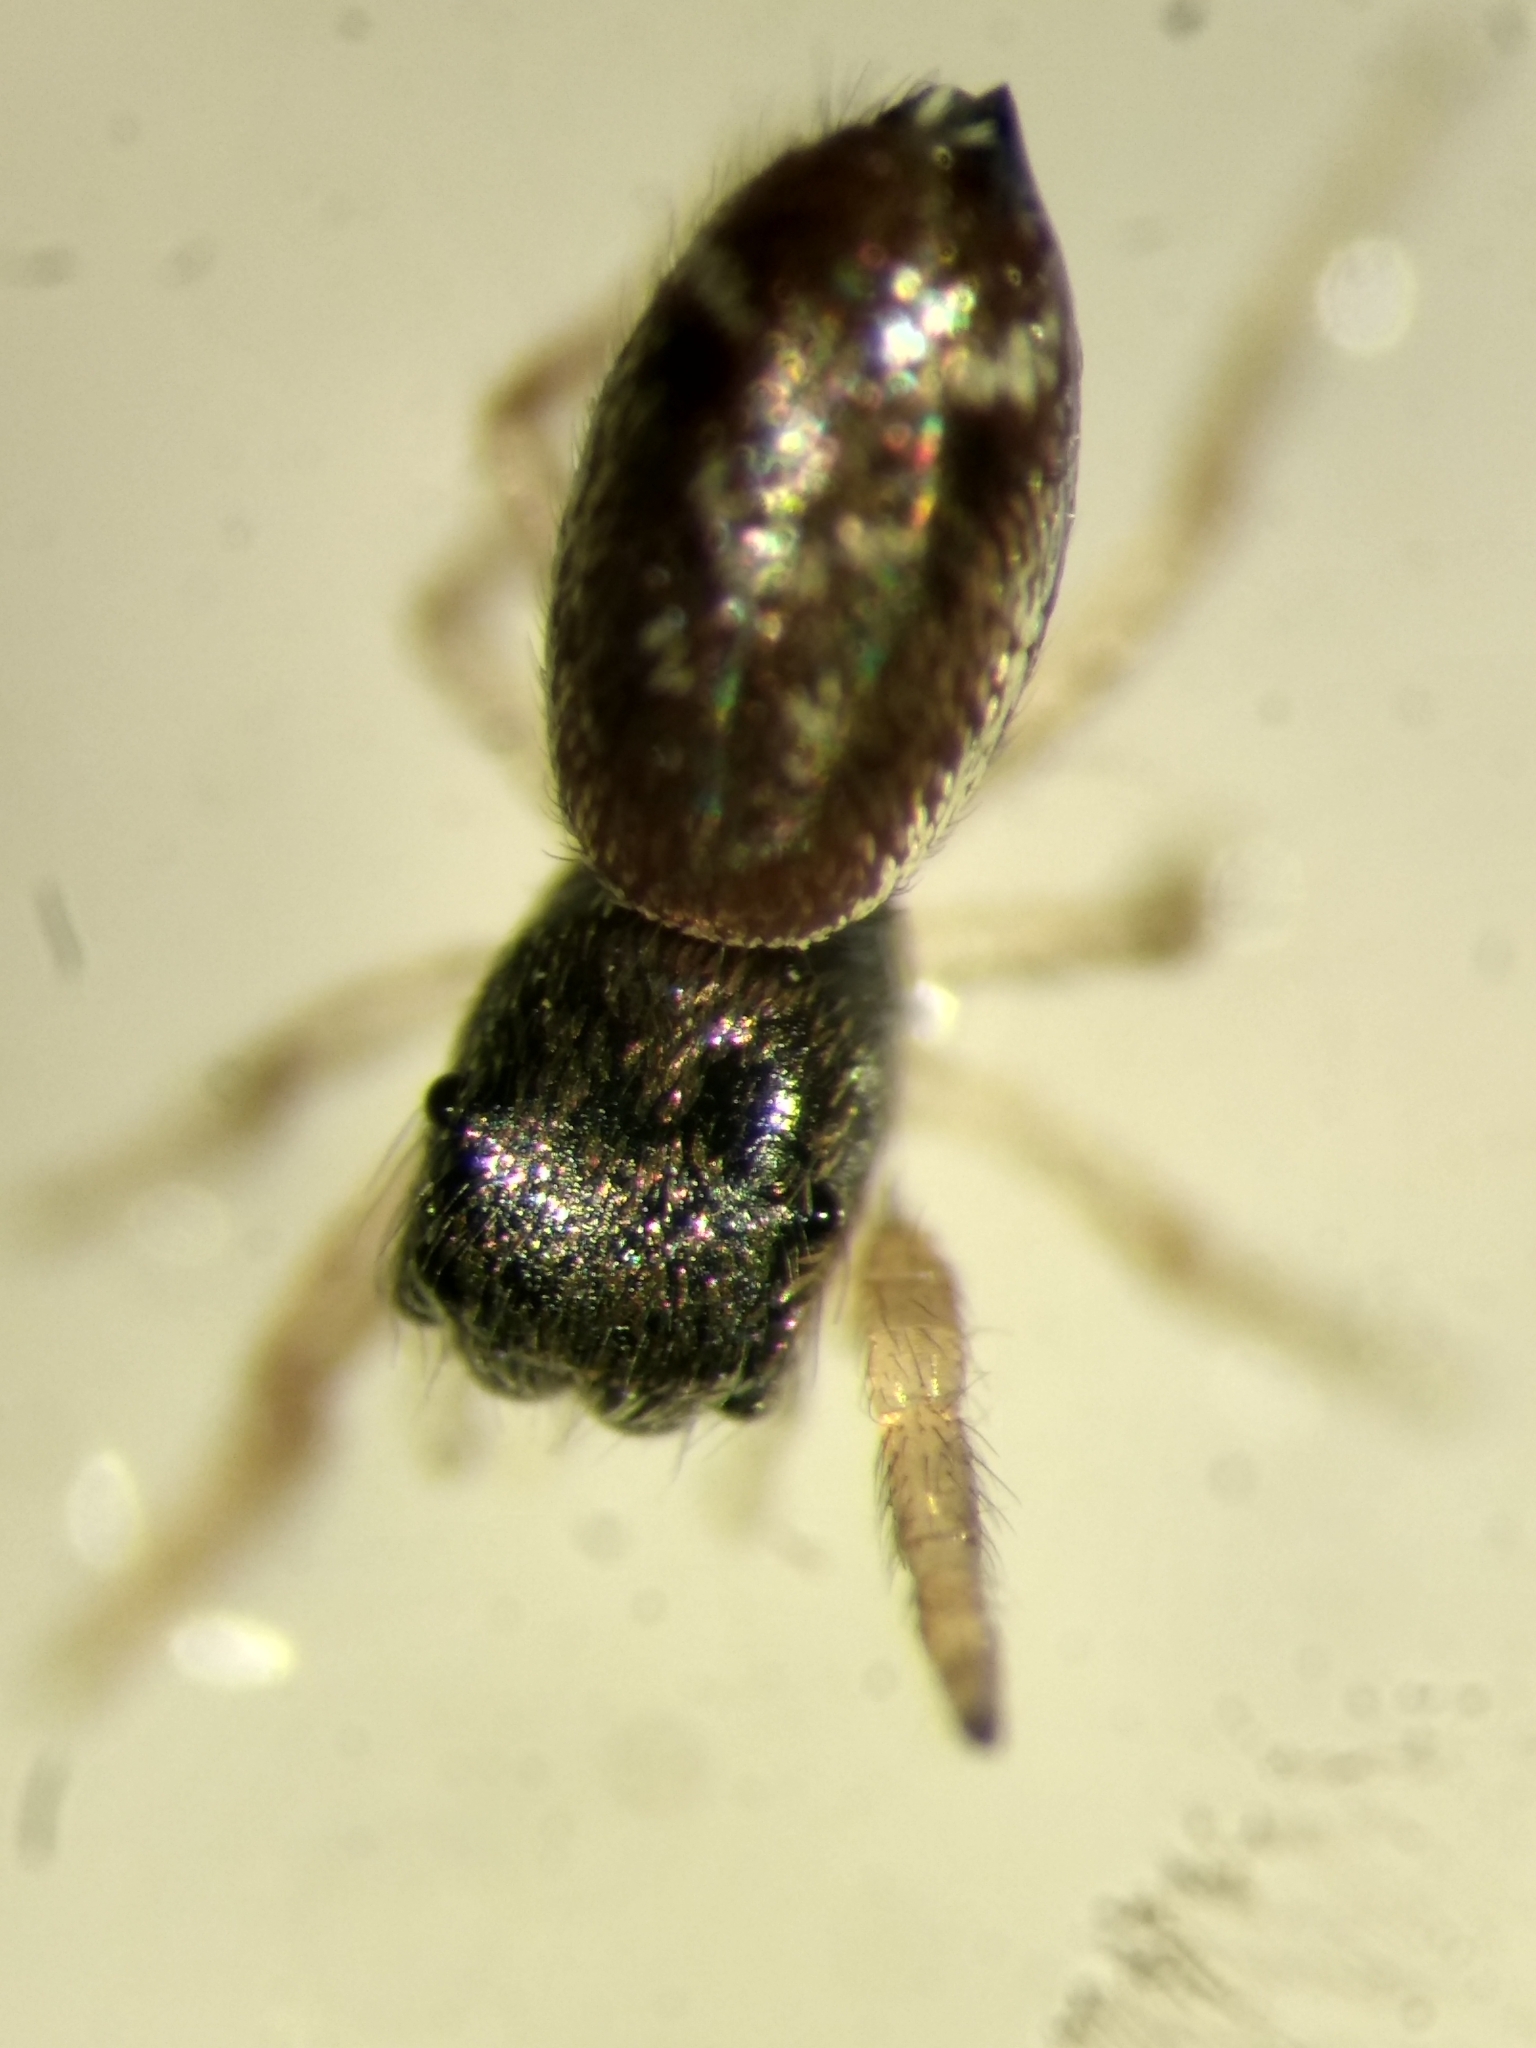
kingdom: Animalia
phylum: Arthropoda
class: Arachnida
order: Araneae
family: Salticidae
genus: Sassacus
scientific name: Sassacus vitis
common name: Jumping spiders
